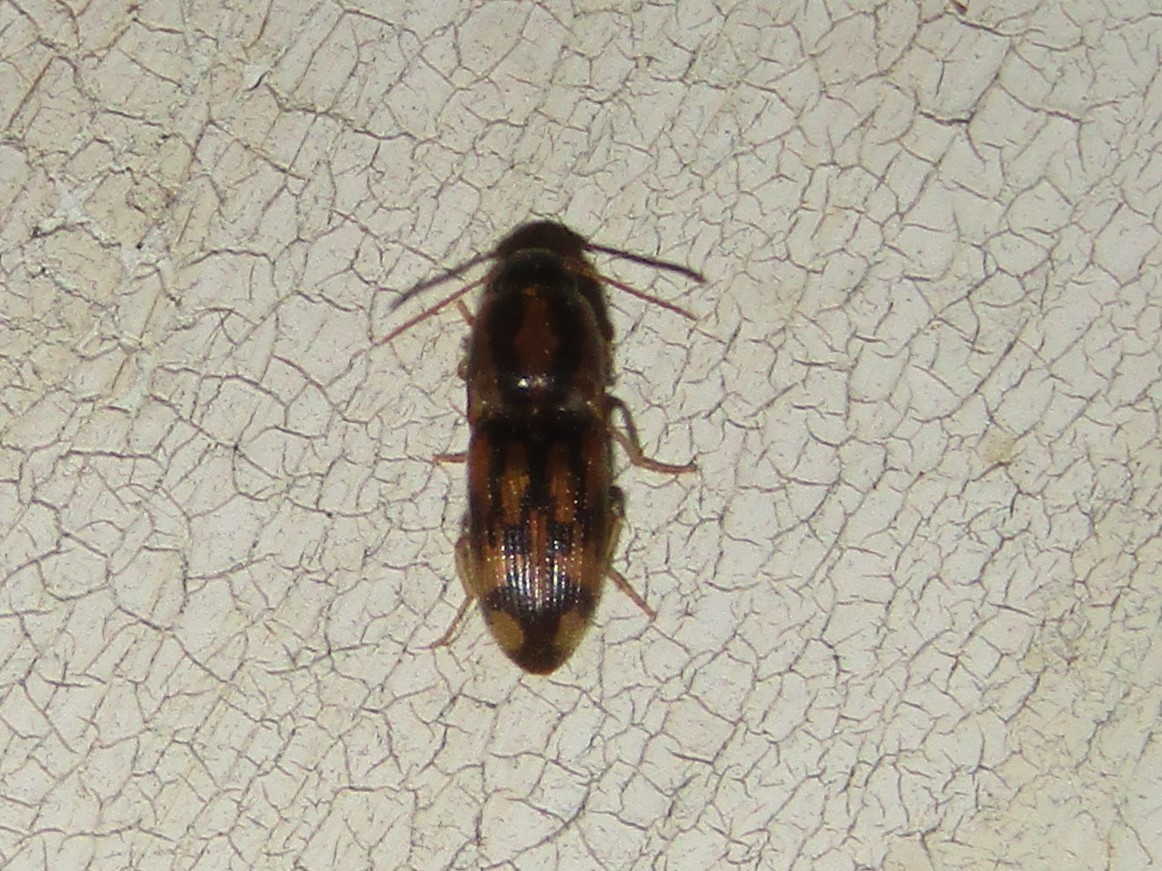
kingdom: Animalia
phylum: Arthropoda
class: Insecta
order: Coleoptera
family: Elateridae
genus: Monocrepidius
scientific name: Monocrepidius bellus
